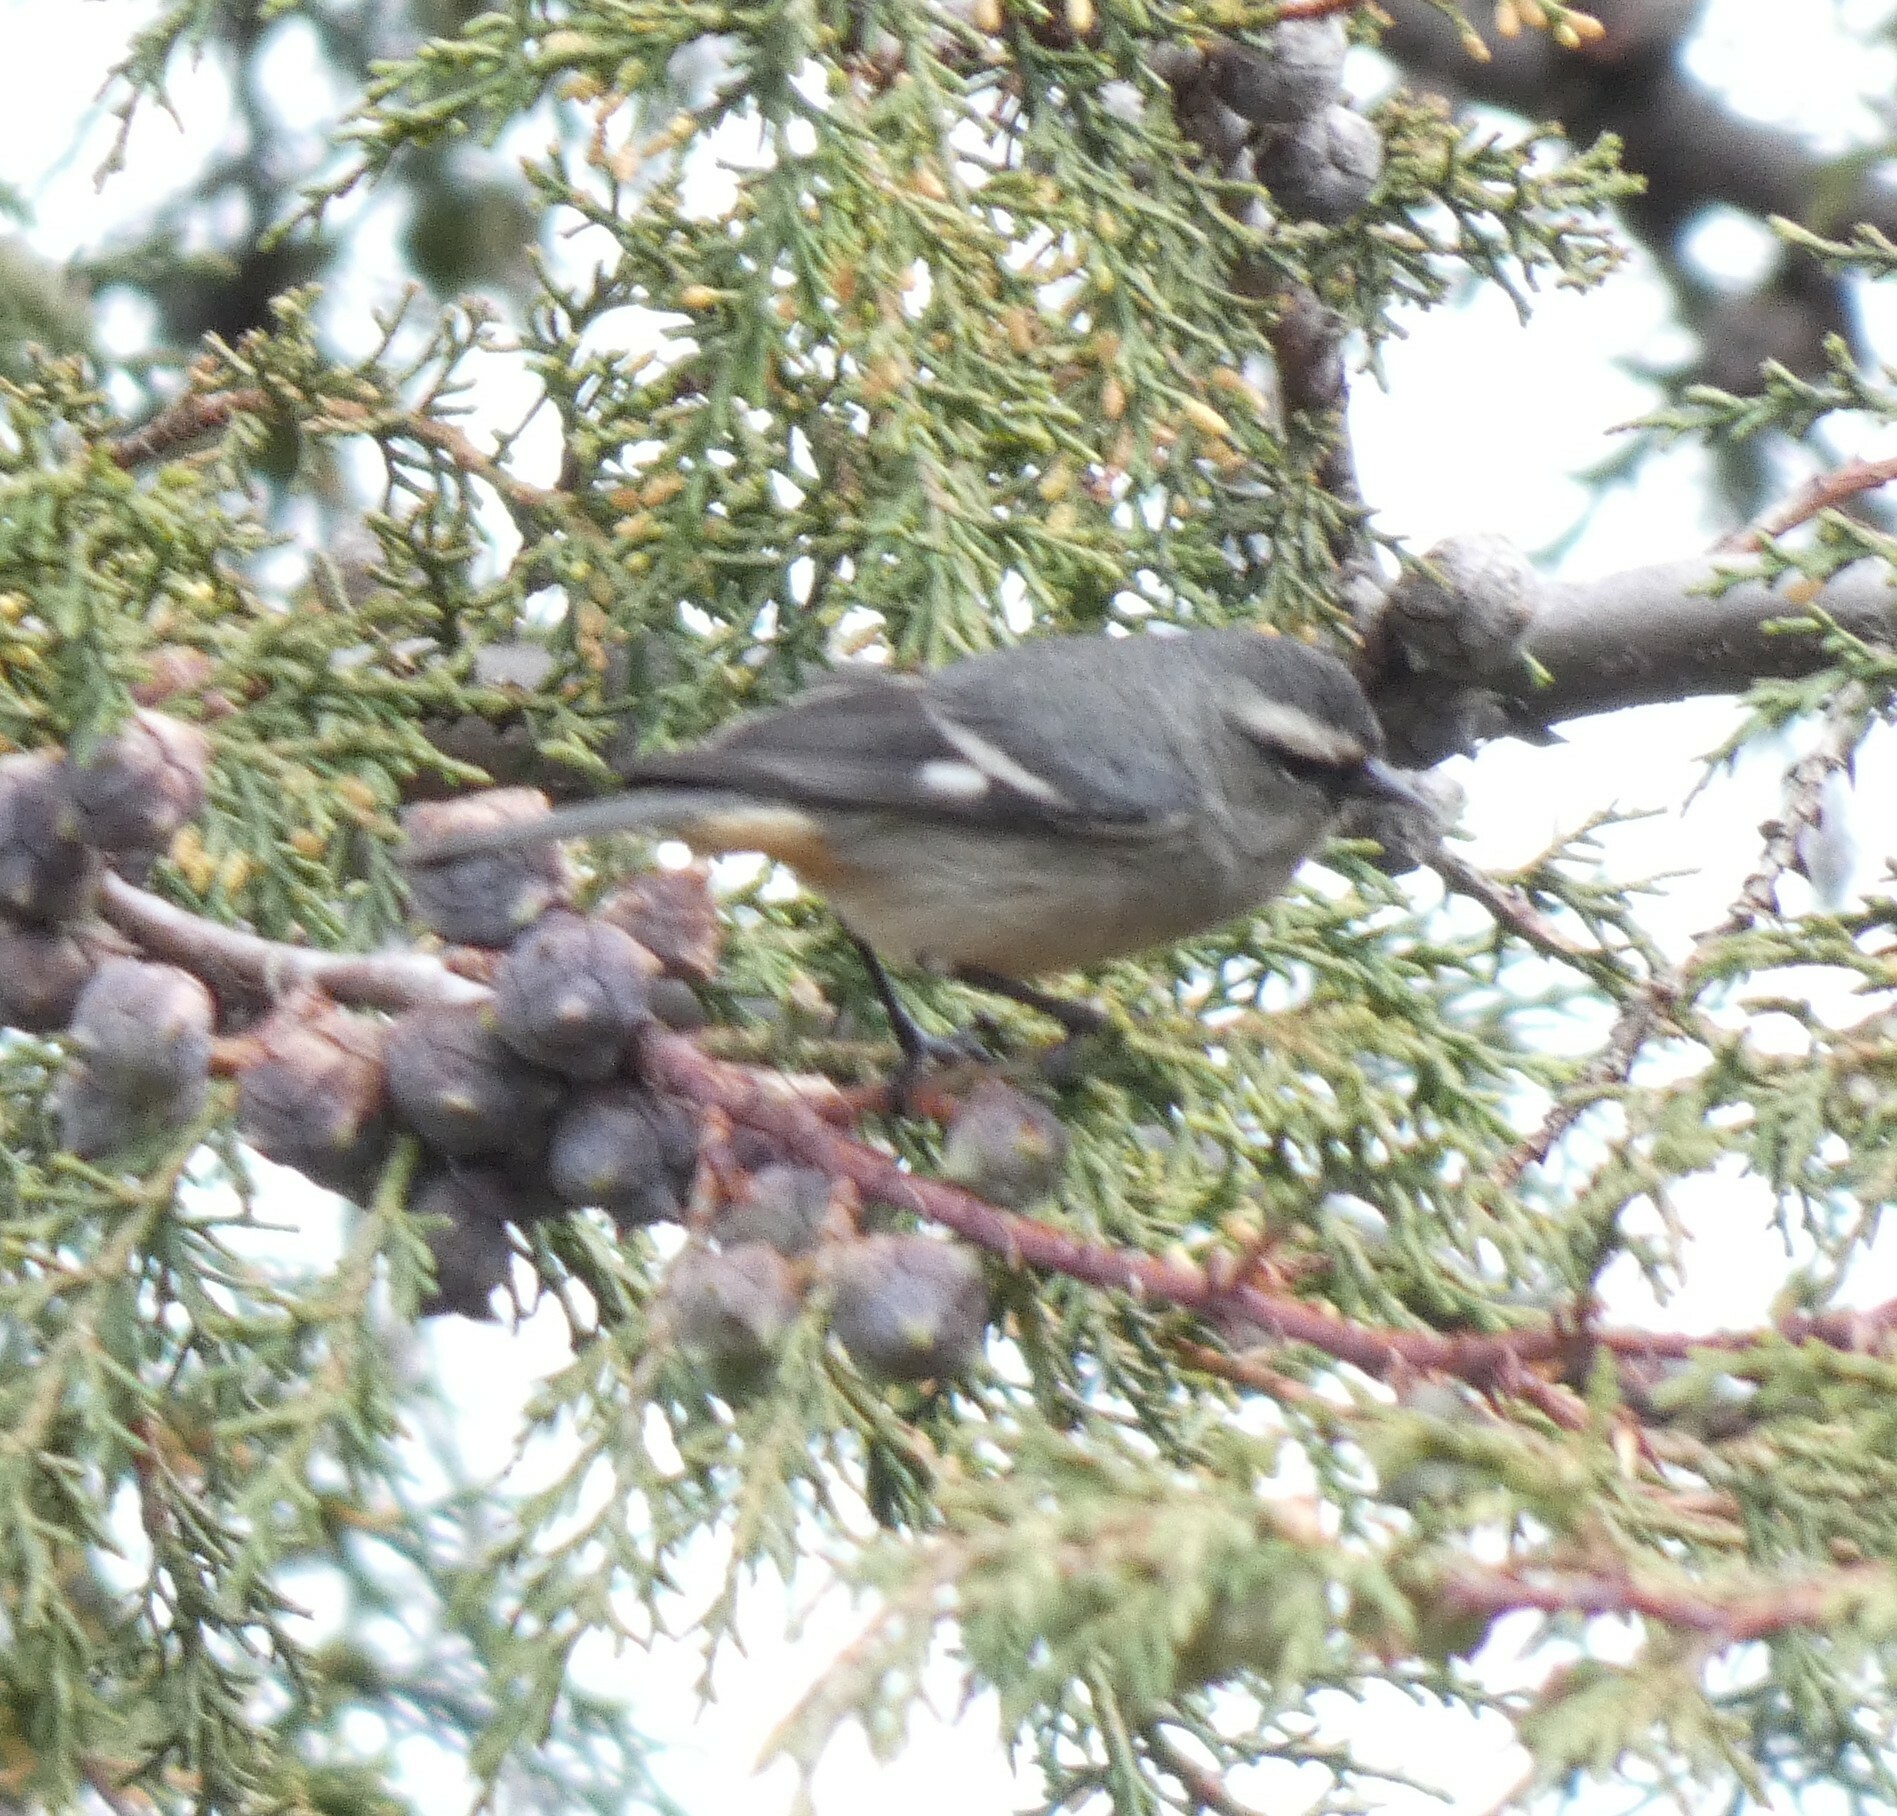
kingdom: Animalia
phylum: Chordata
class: Aves
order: Passeriformes
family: Thraupidae
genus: Conirostrum
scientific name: Conirostrum cinereum
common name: Cinereous conebill
